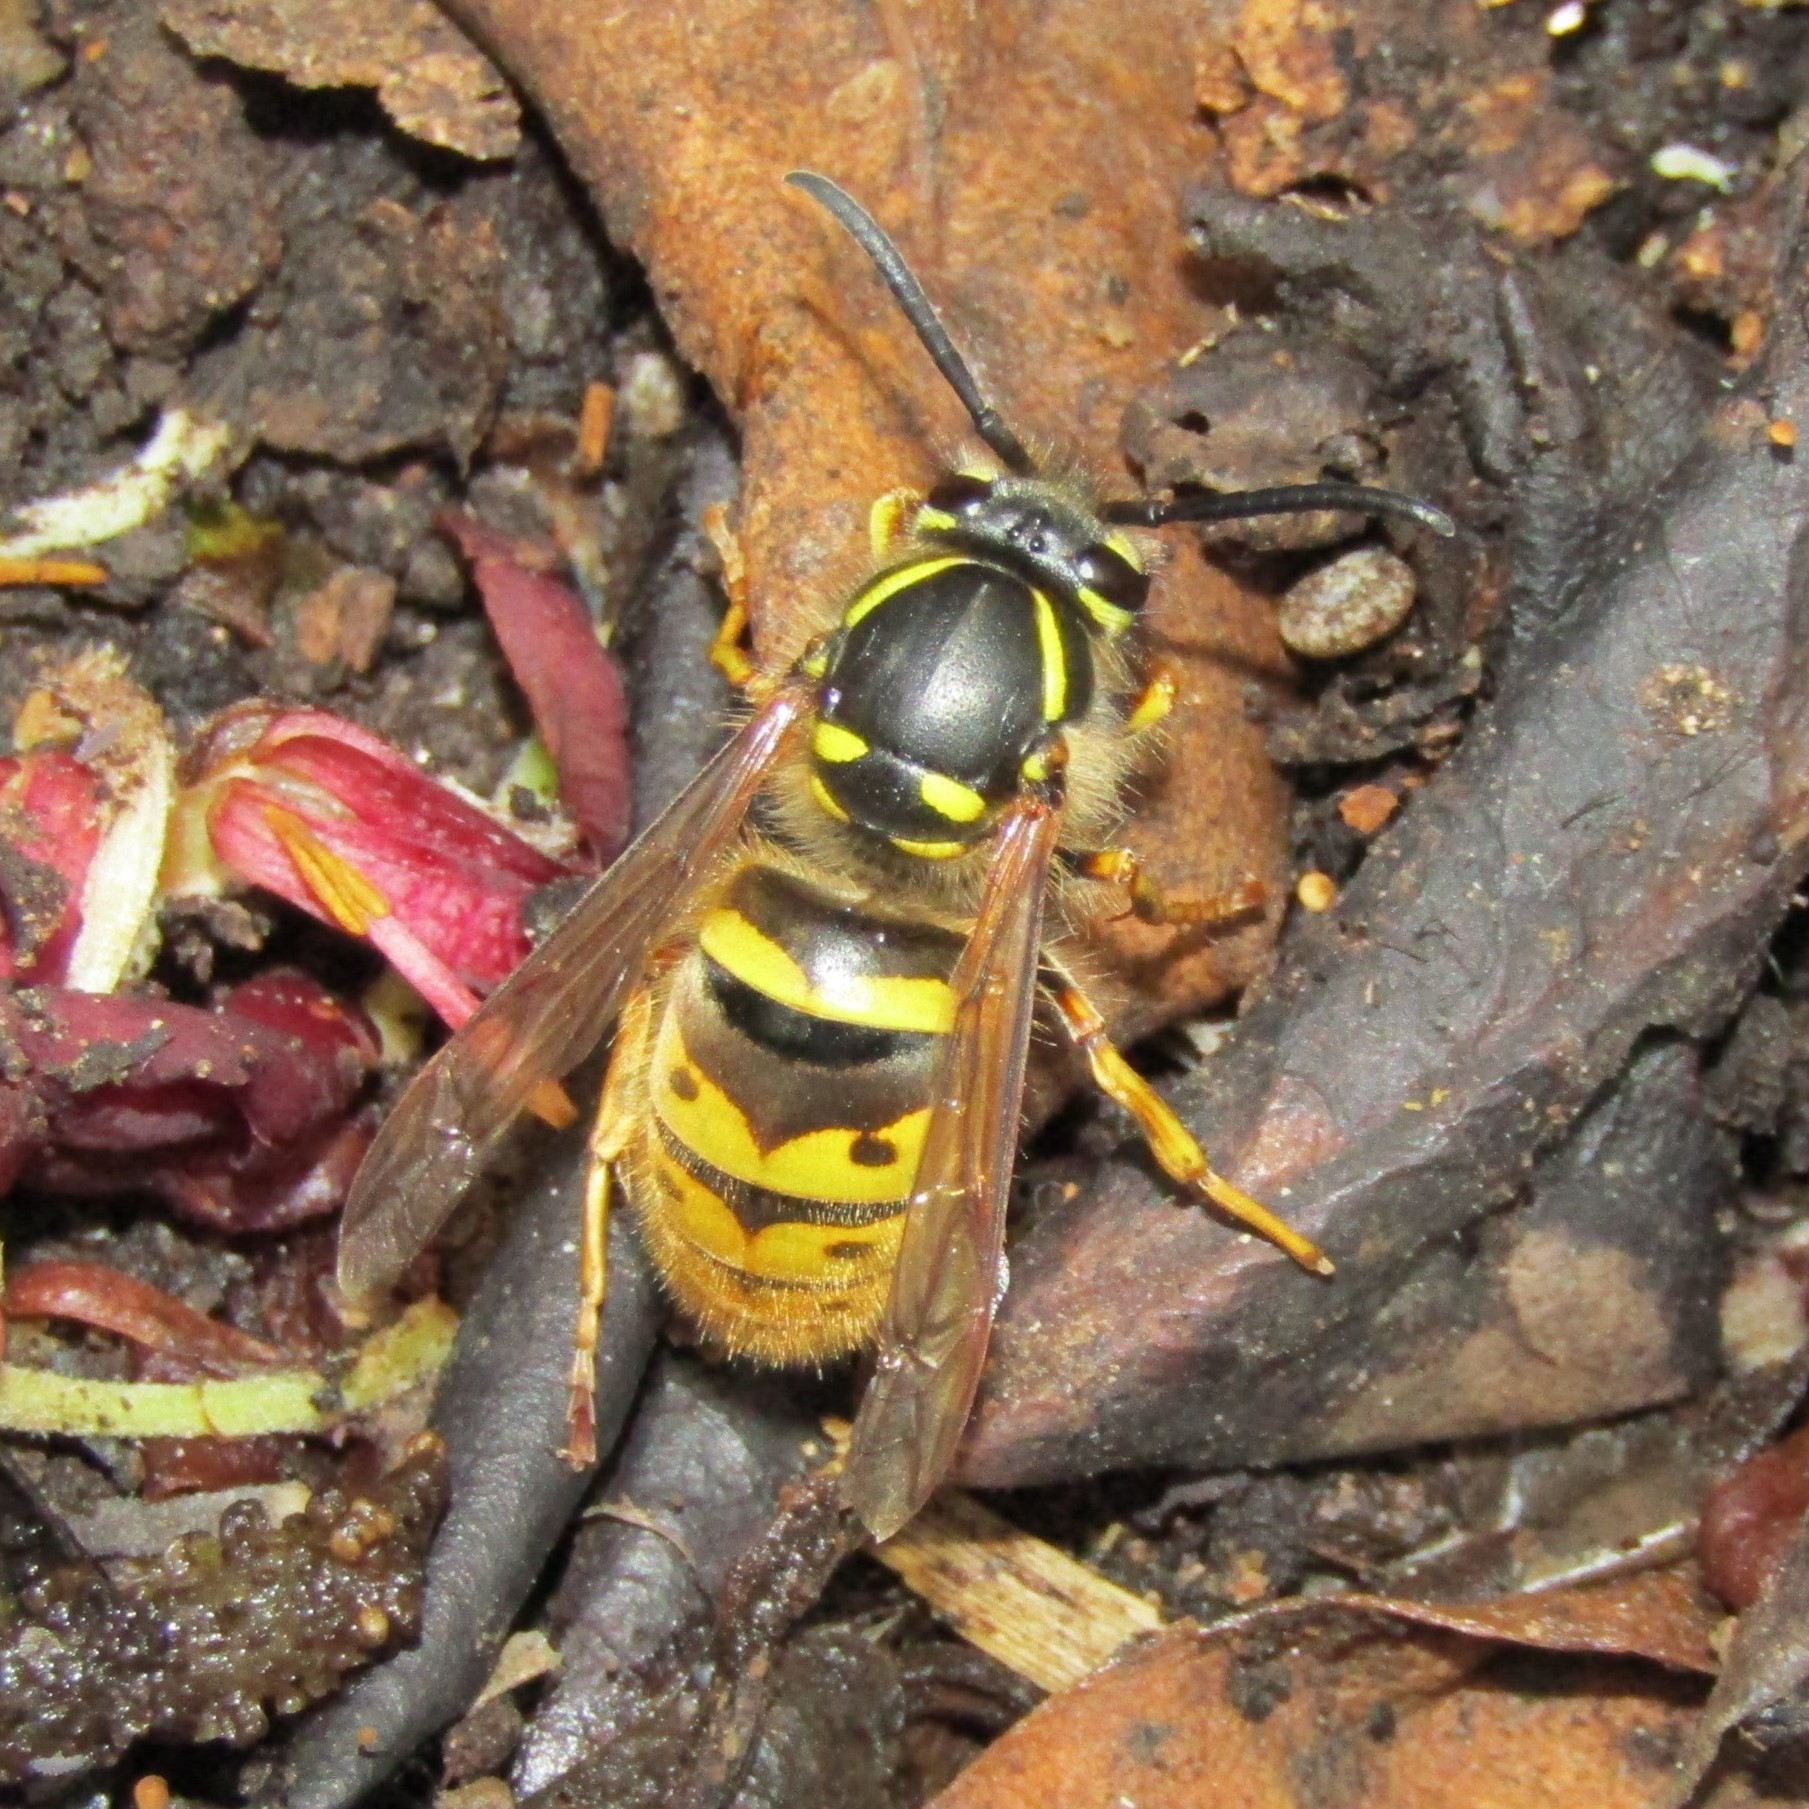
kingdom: Animalia
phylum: Arthropoda
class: Insecta
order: Hymenoptera
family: Vespidae
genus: Vespula
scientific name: Vespula vulgaris
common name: Common wasp
